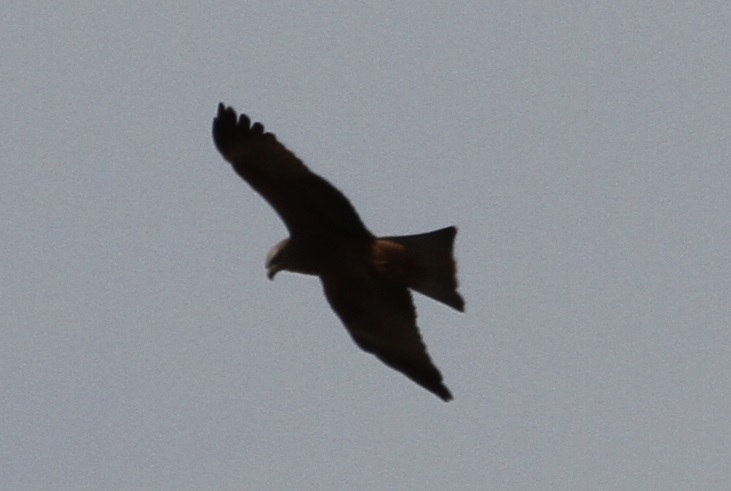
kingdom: Animalia
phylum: Chordata
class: Aves
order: Accipitriformes
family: Accipitridae
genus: Milvus
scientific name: Milvus migrans
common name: Black kite
